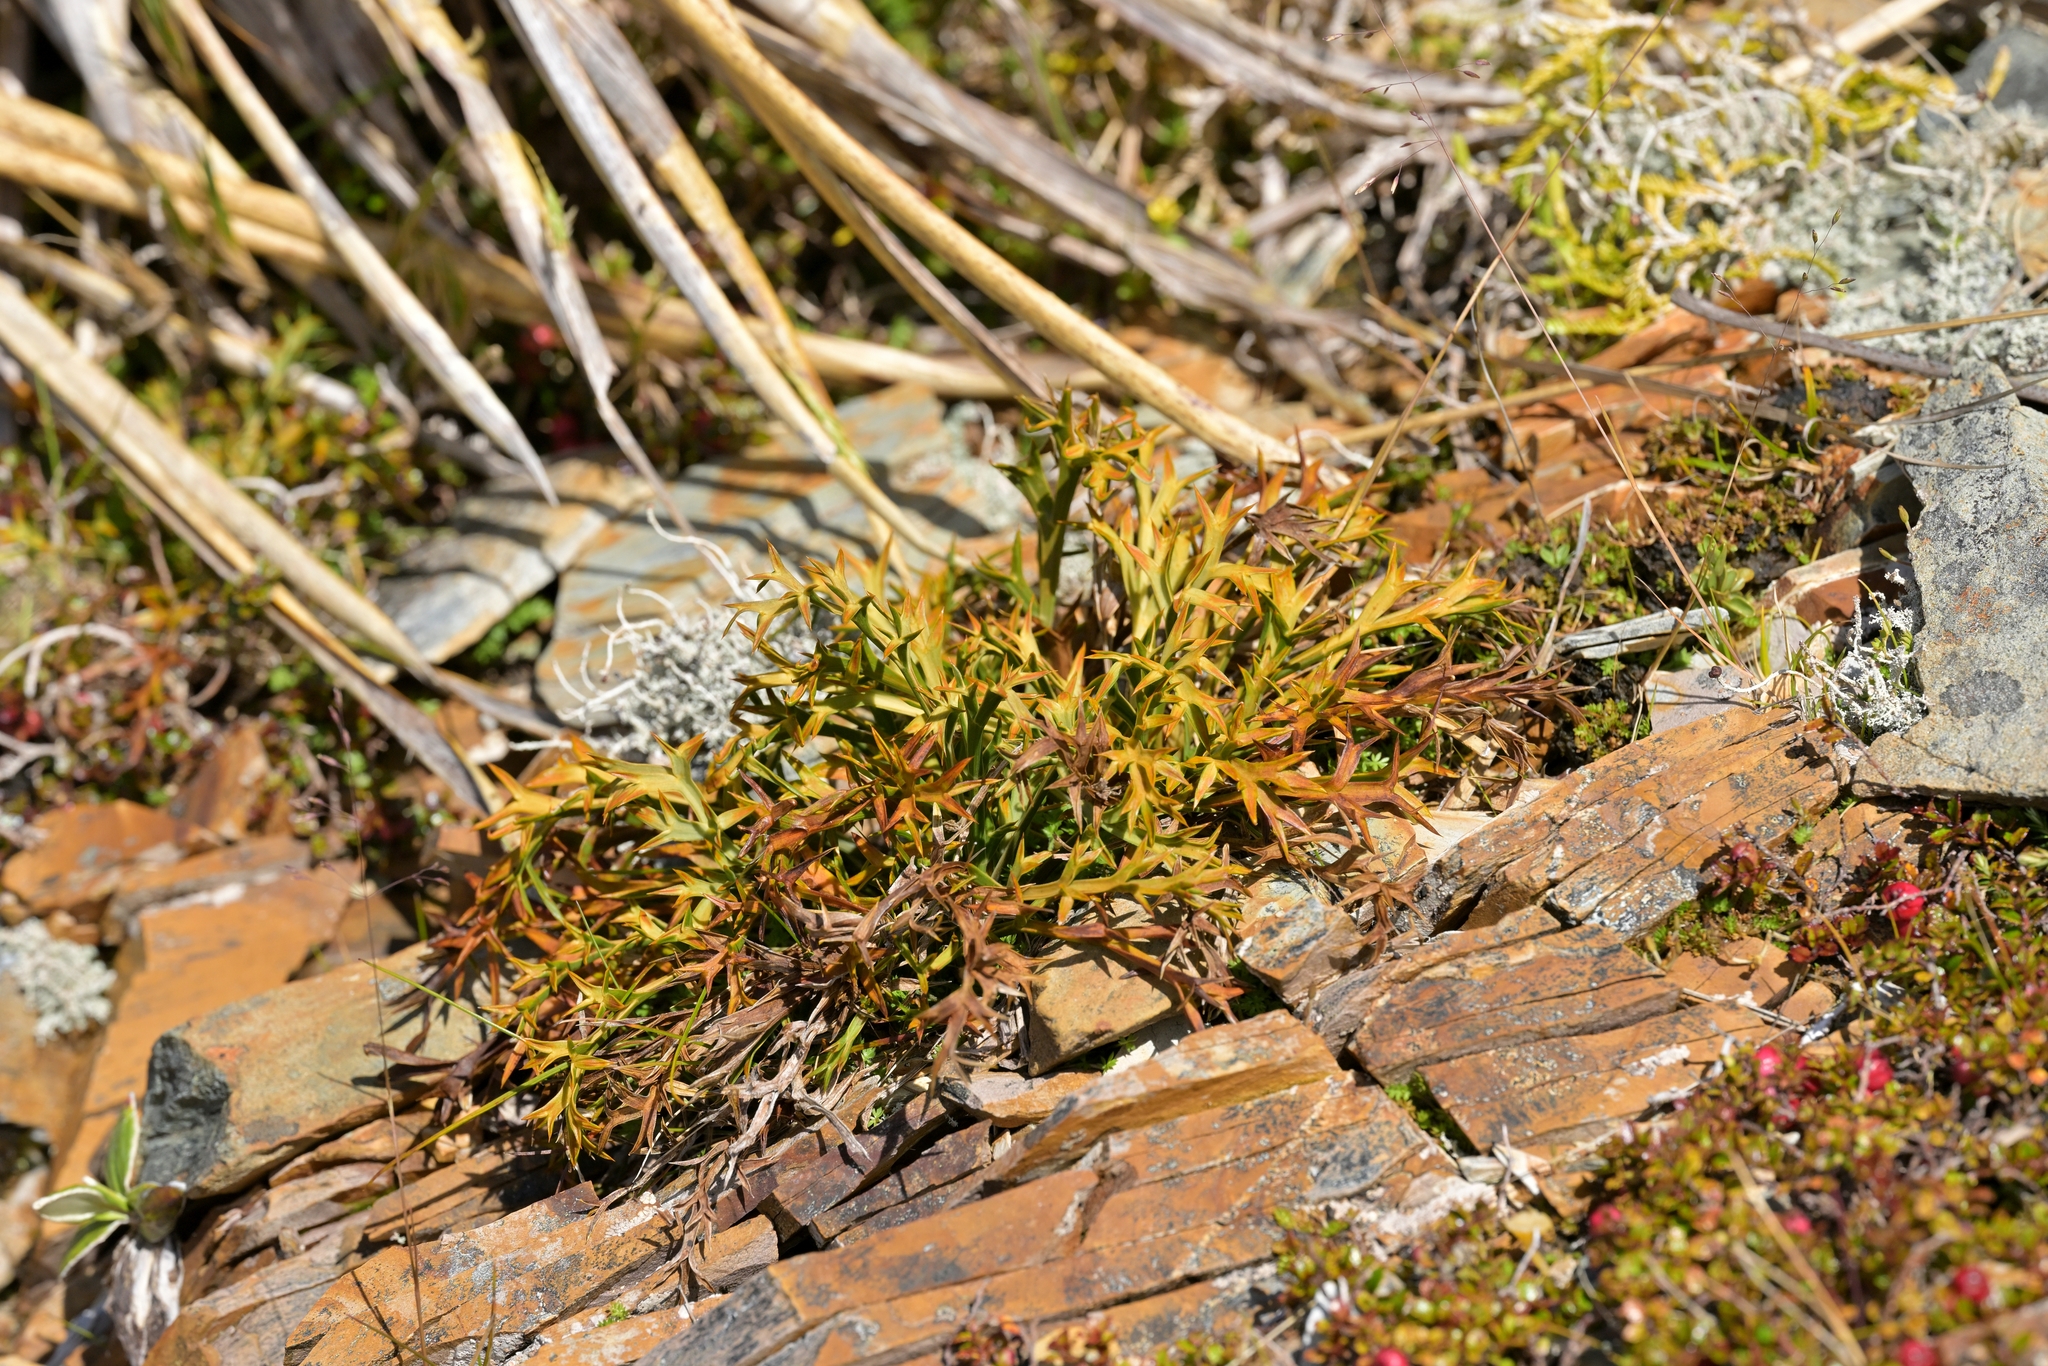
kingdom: Plantae
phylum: Tracheophyta
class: Magnoliopsida
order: Apiales
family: Apiaceae
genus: Aciphylla
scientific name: Aciphylla hookeri
